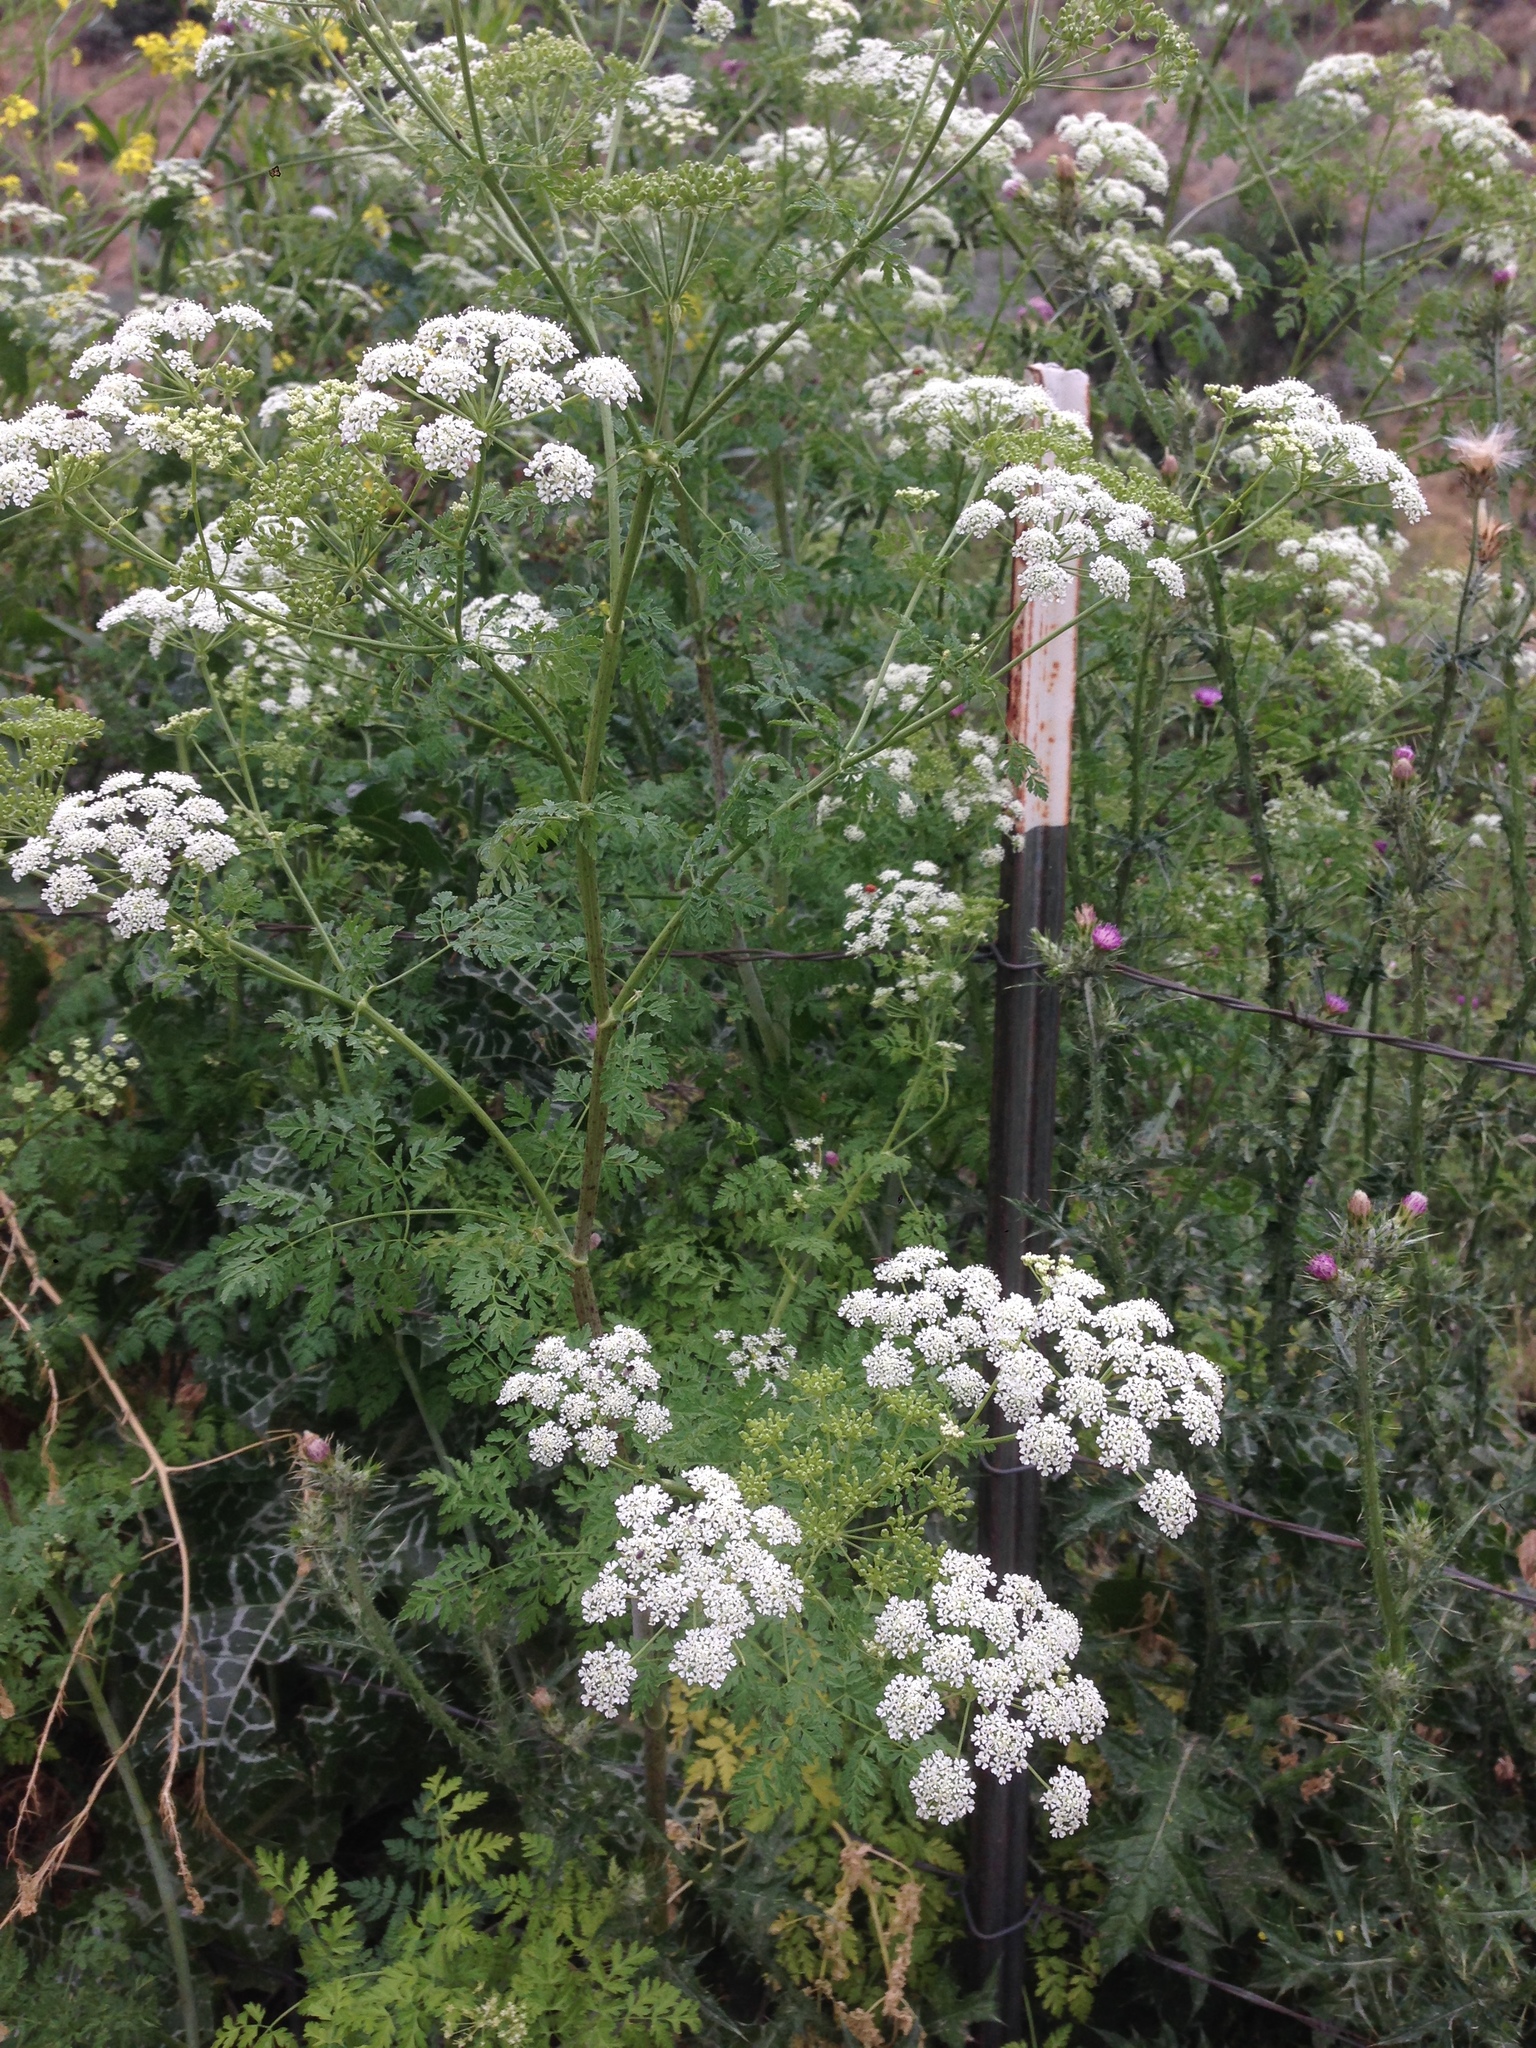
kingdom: Plantae
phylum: Tracheophyta
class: Magnoliopsida
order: Apiales
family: Apiaceae
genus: Conium
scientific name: Conium maculatum
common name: Hemlock
